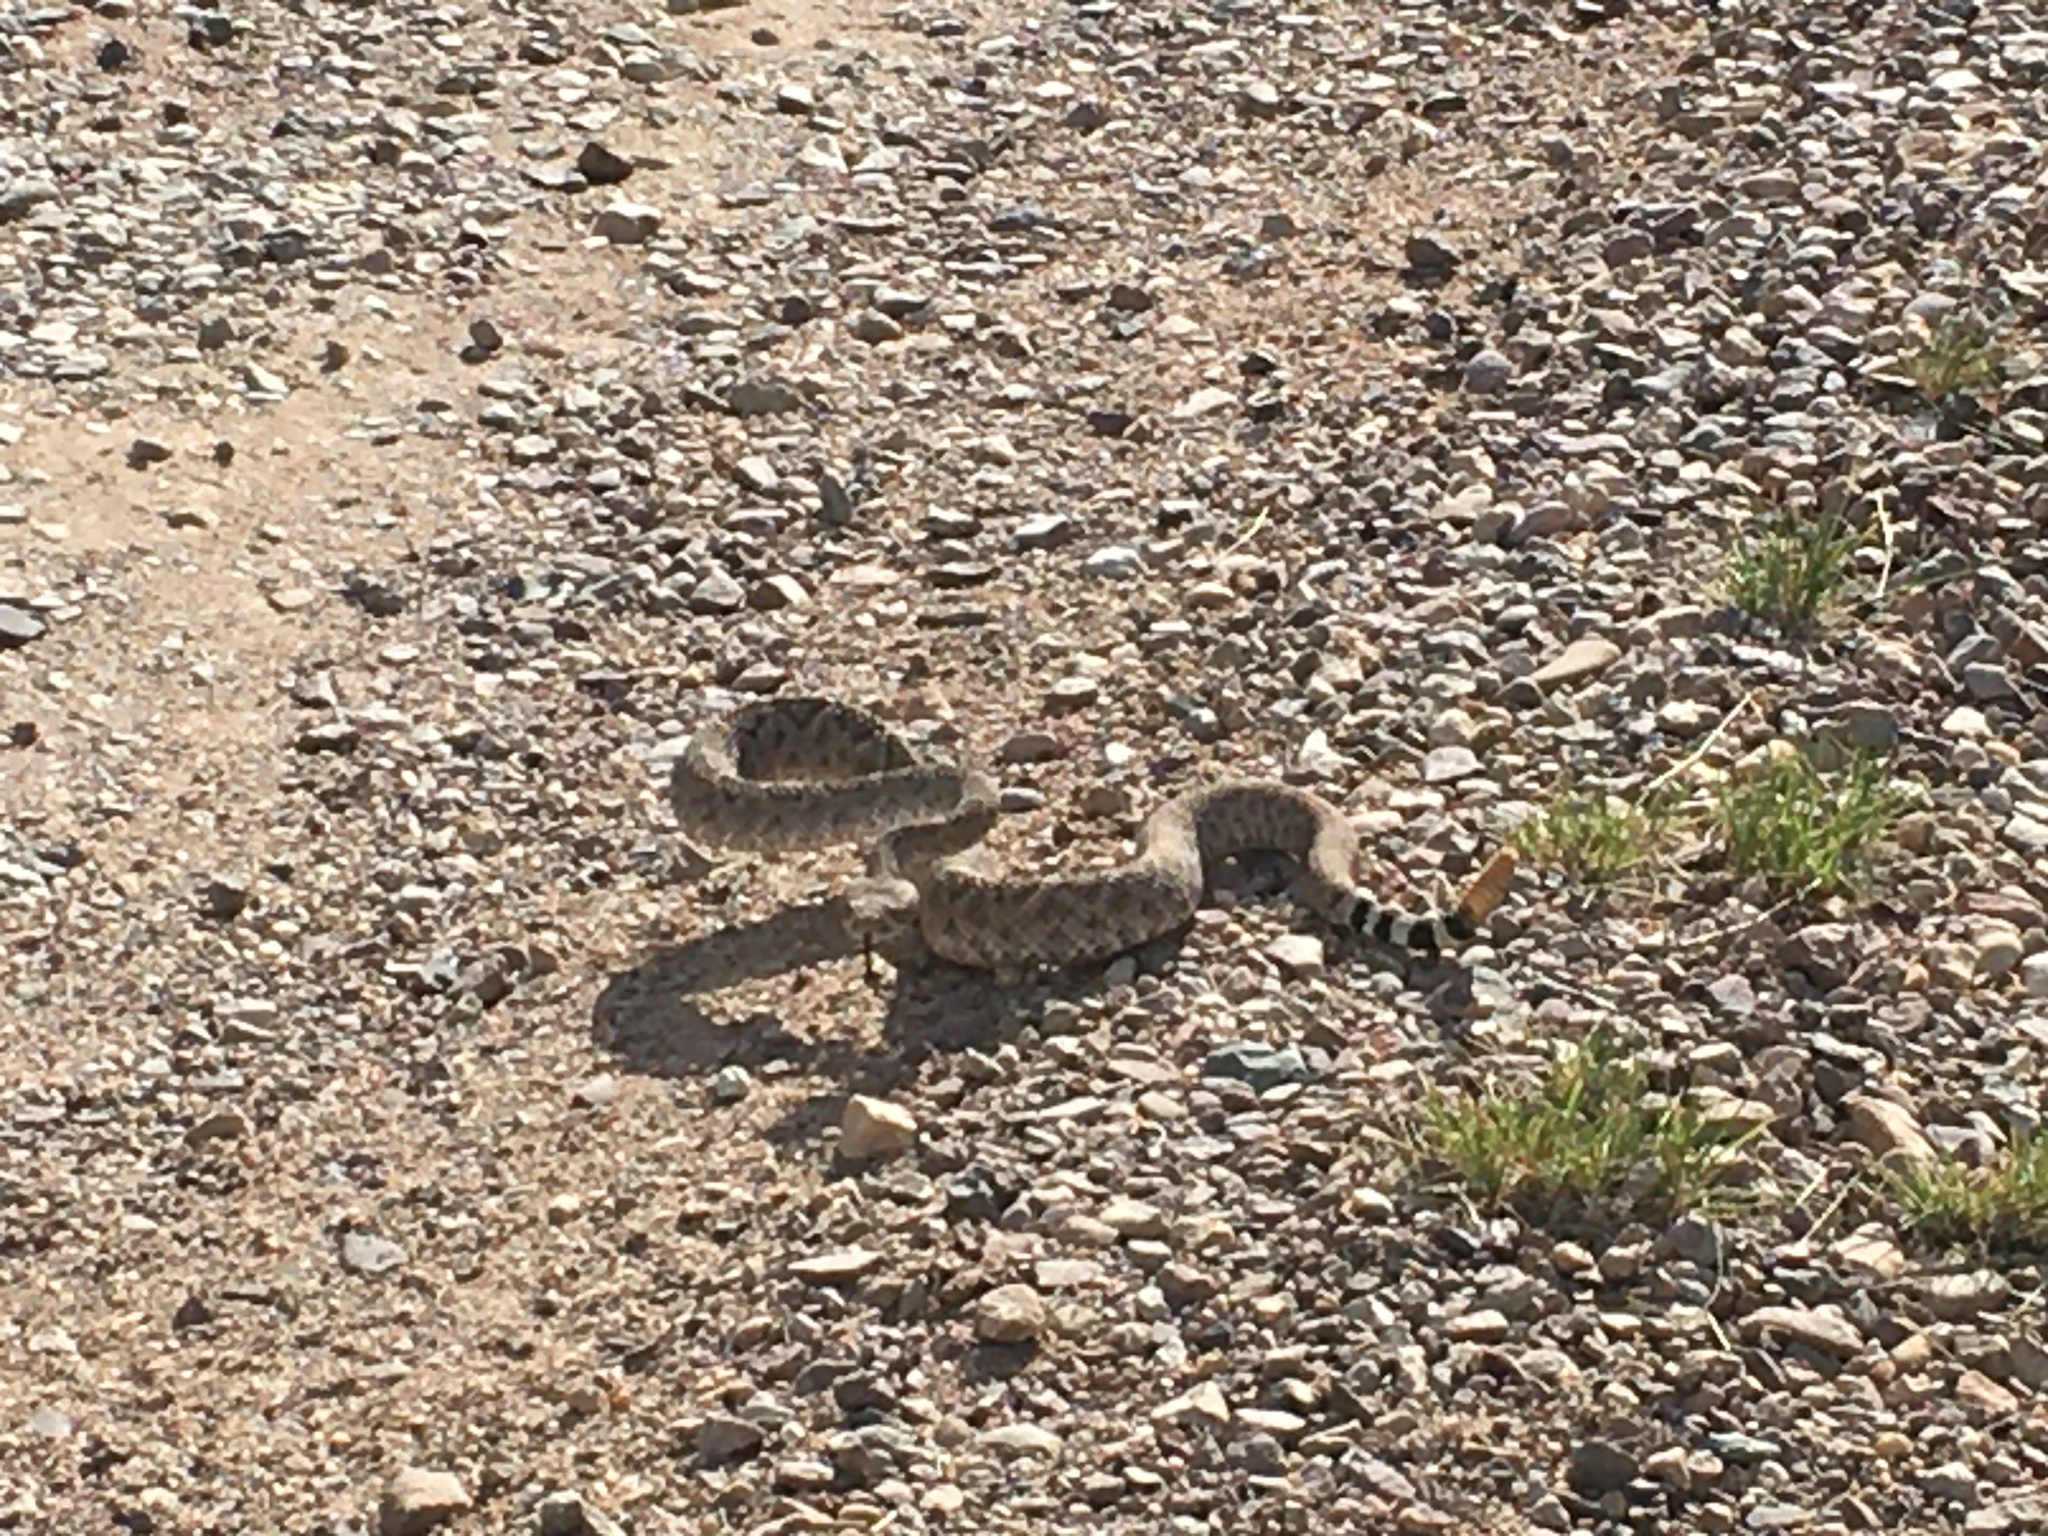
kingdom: Animalia
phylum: Chordata
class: Squamata
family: Viperidae
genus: Crotalus
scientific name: Crotalus atrox
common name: Western diamond-backed rattlesnake
